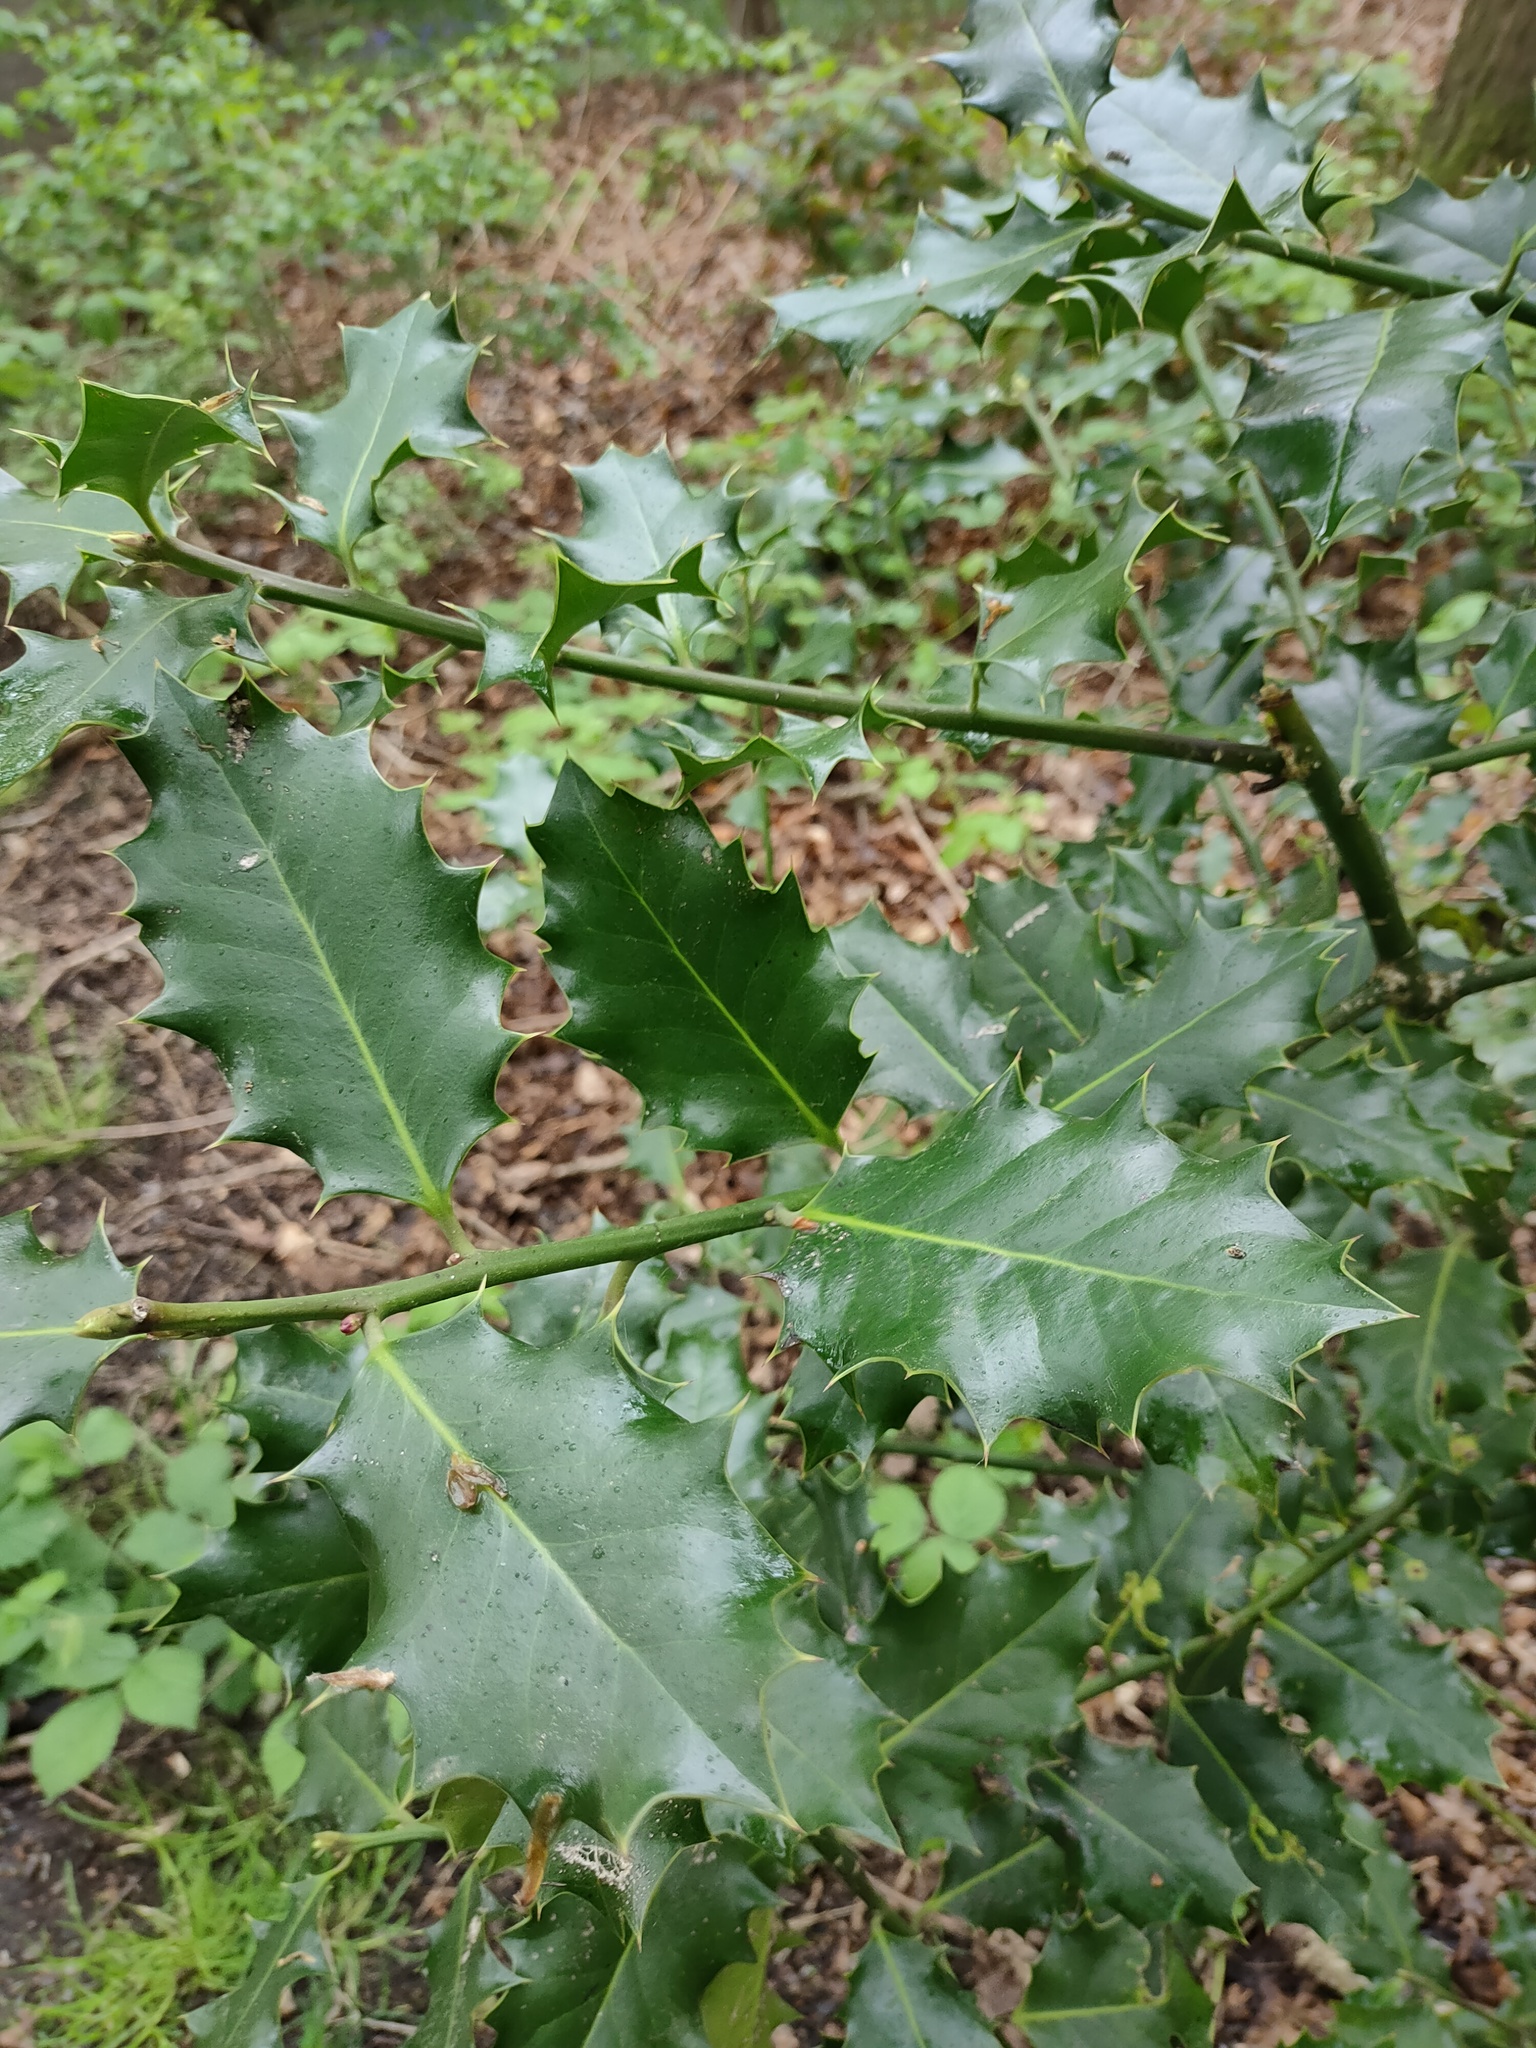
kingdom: Plantae
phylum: Tracheophyta
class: Magnoliopsida
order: Aquifoliales
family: Aquifoliaceae
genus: Ilex
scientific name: Ilex aquifolium
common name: English holly
